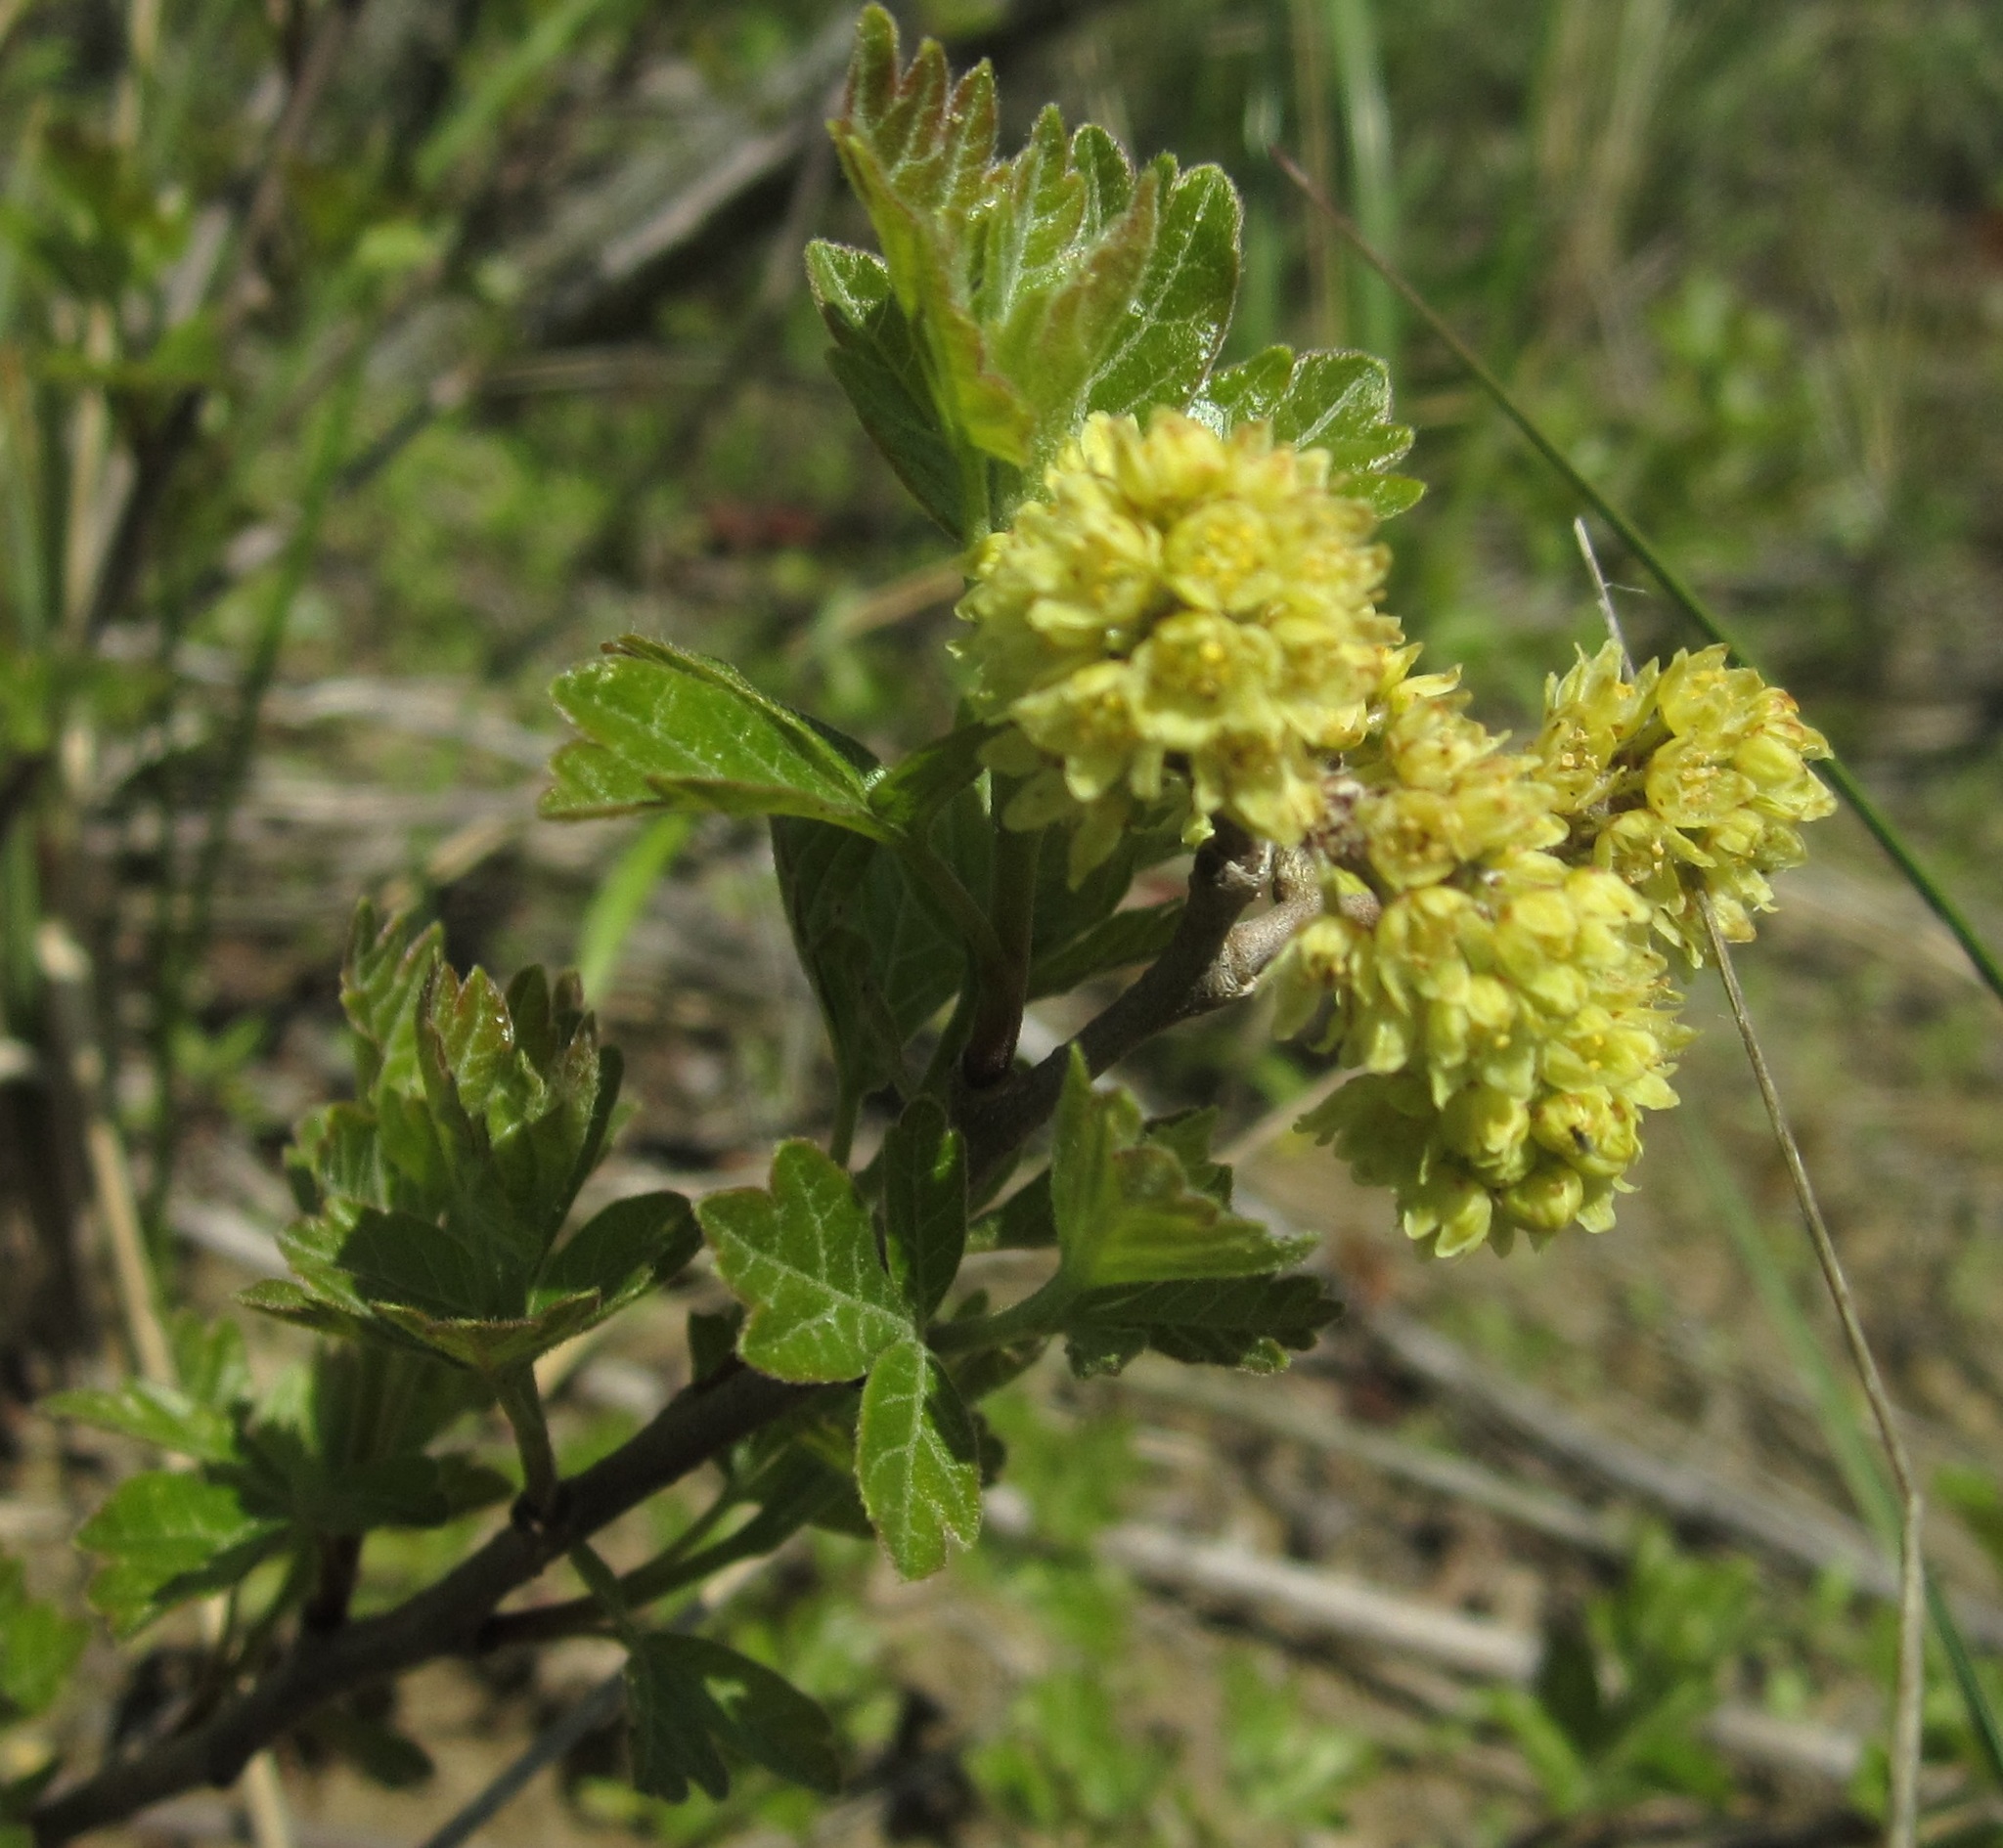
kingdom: Plantae
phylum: Tracheophyta
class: Magnoliopsida
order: Sapindales
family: Anacardiaceae
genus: Rhus
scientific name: Rhus aromatica
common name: Aromatic sumac
